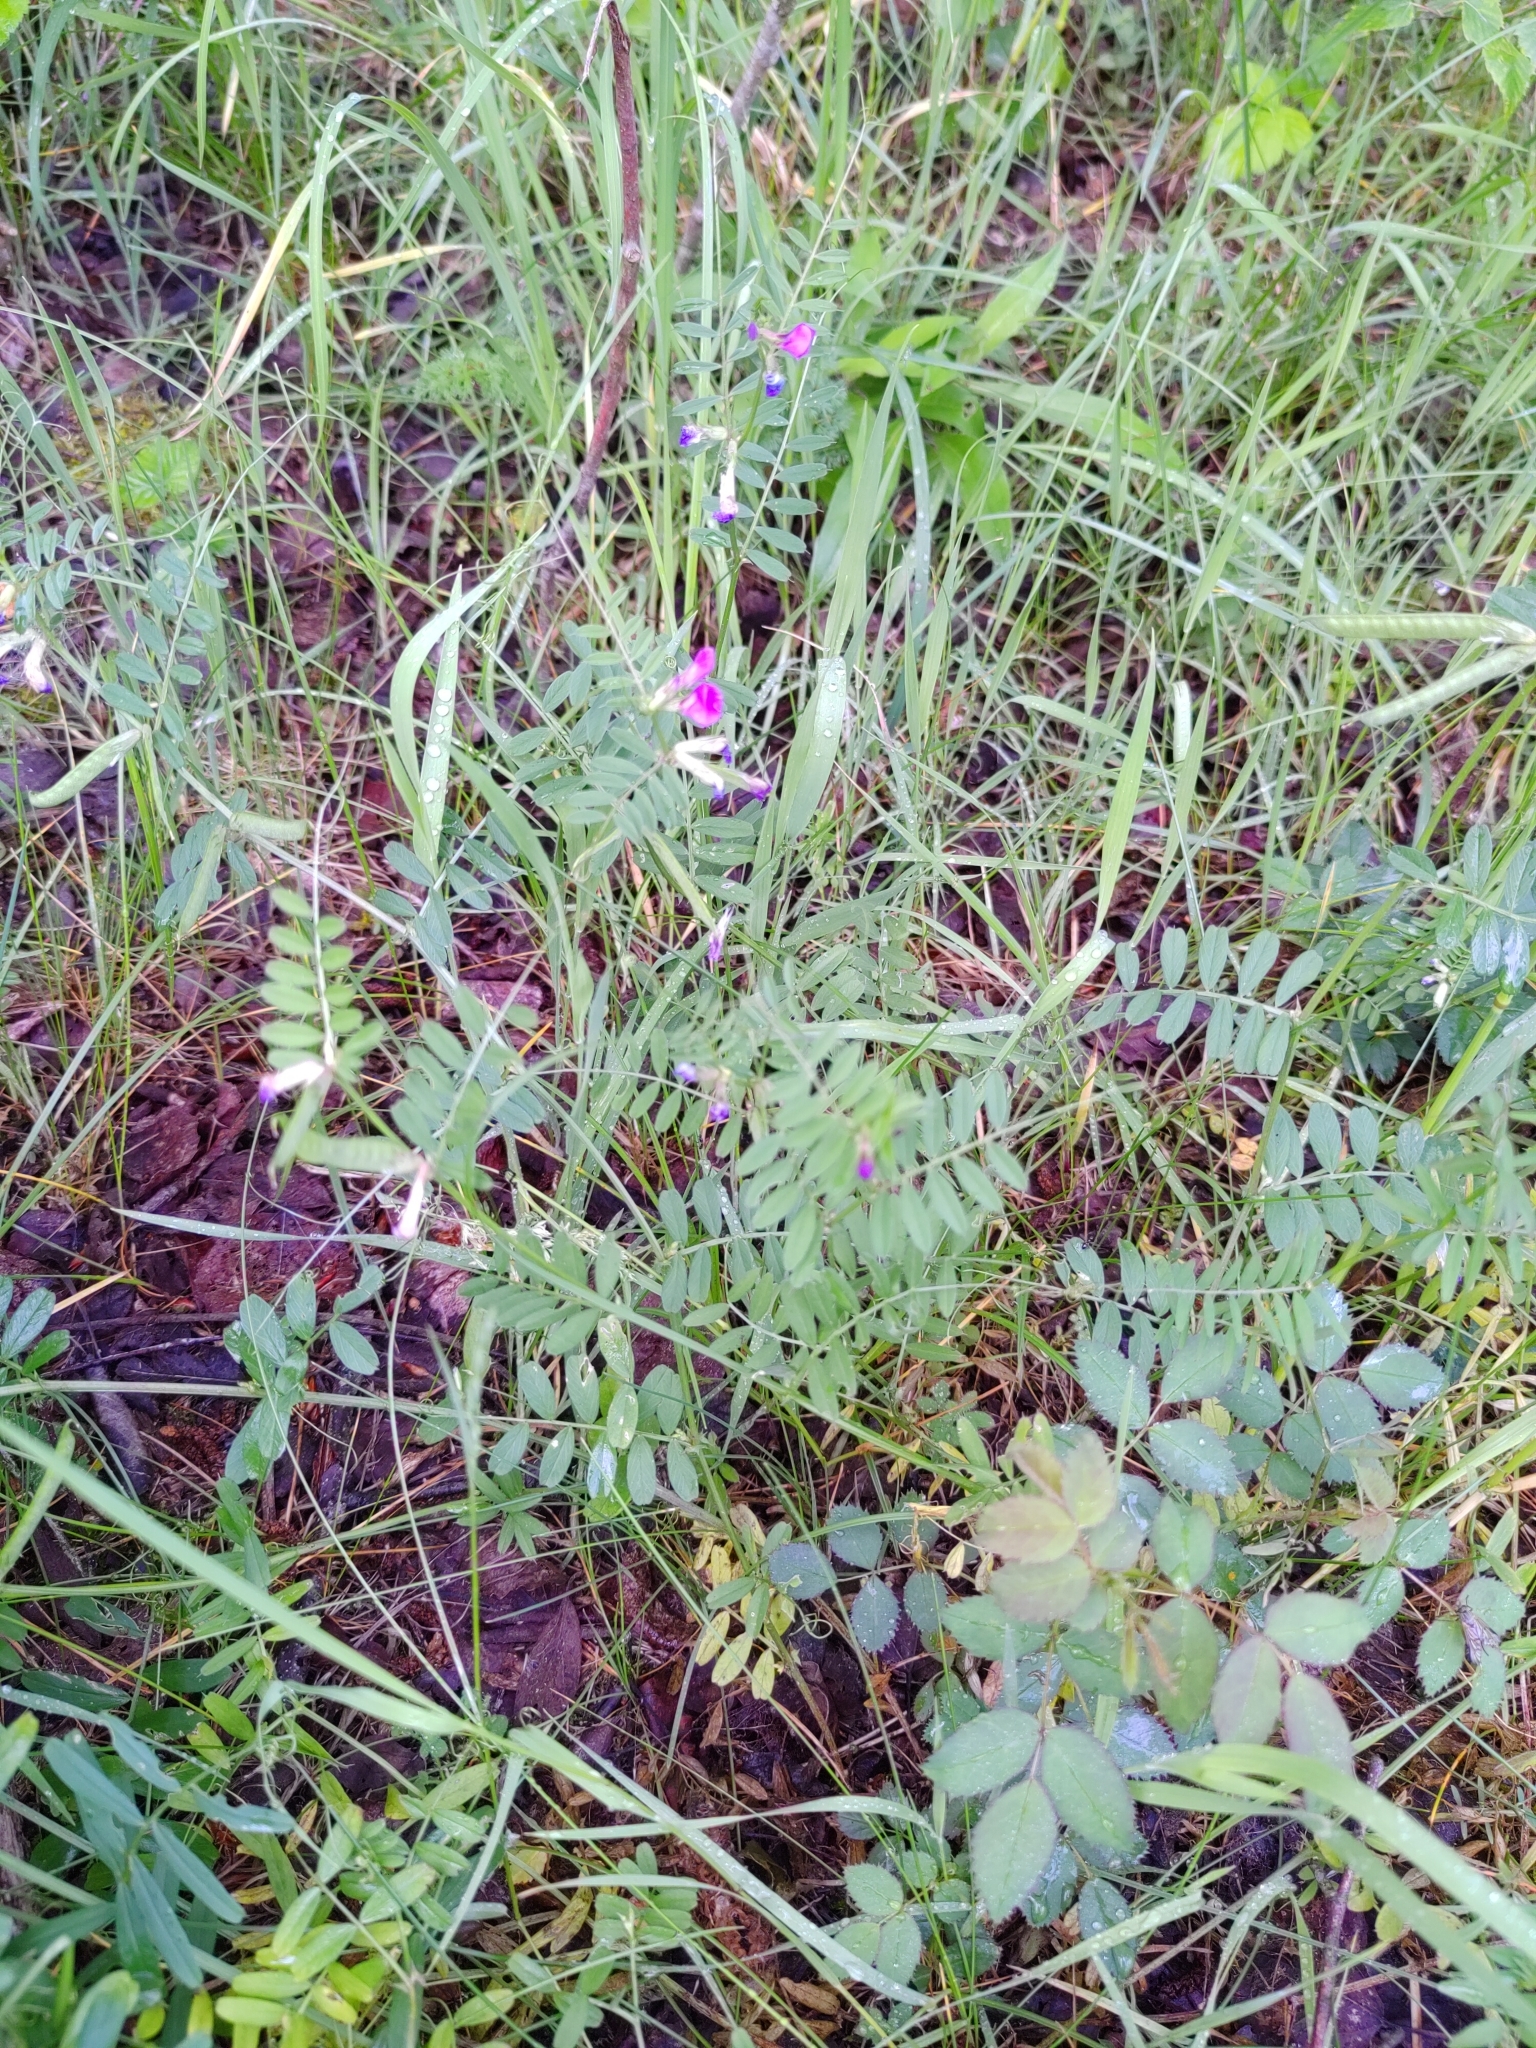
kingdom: Plantae
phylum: Tracheophyta
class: Magnoliopsida
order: Fabales
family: Fabaceae
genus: Vicia
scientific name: Vicia sativa
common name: Garden vetch
